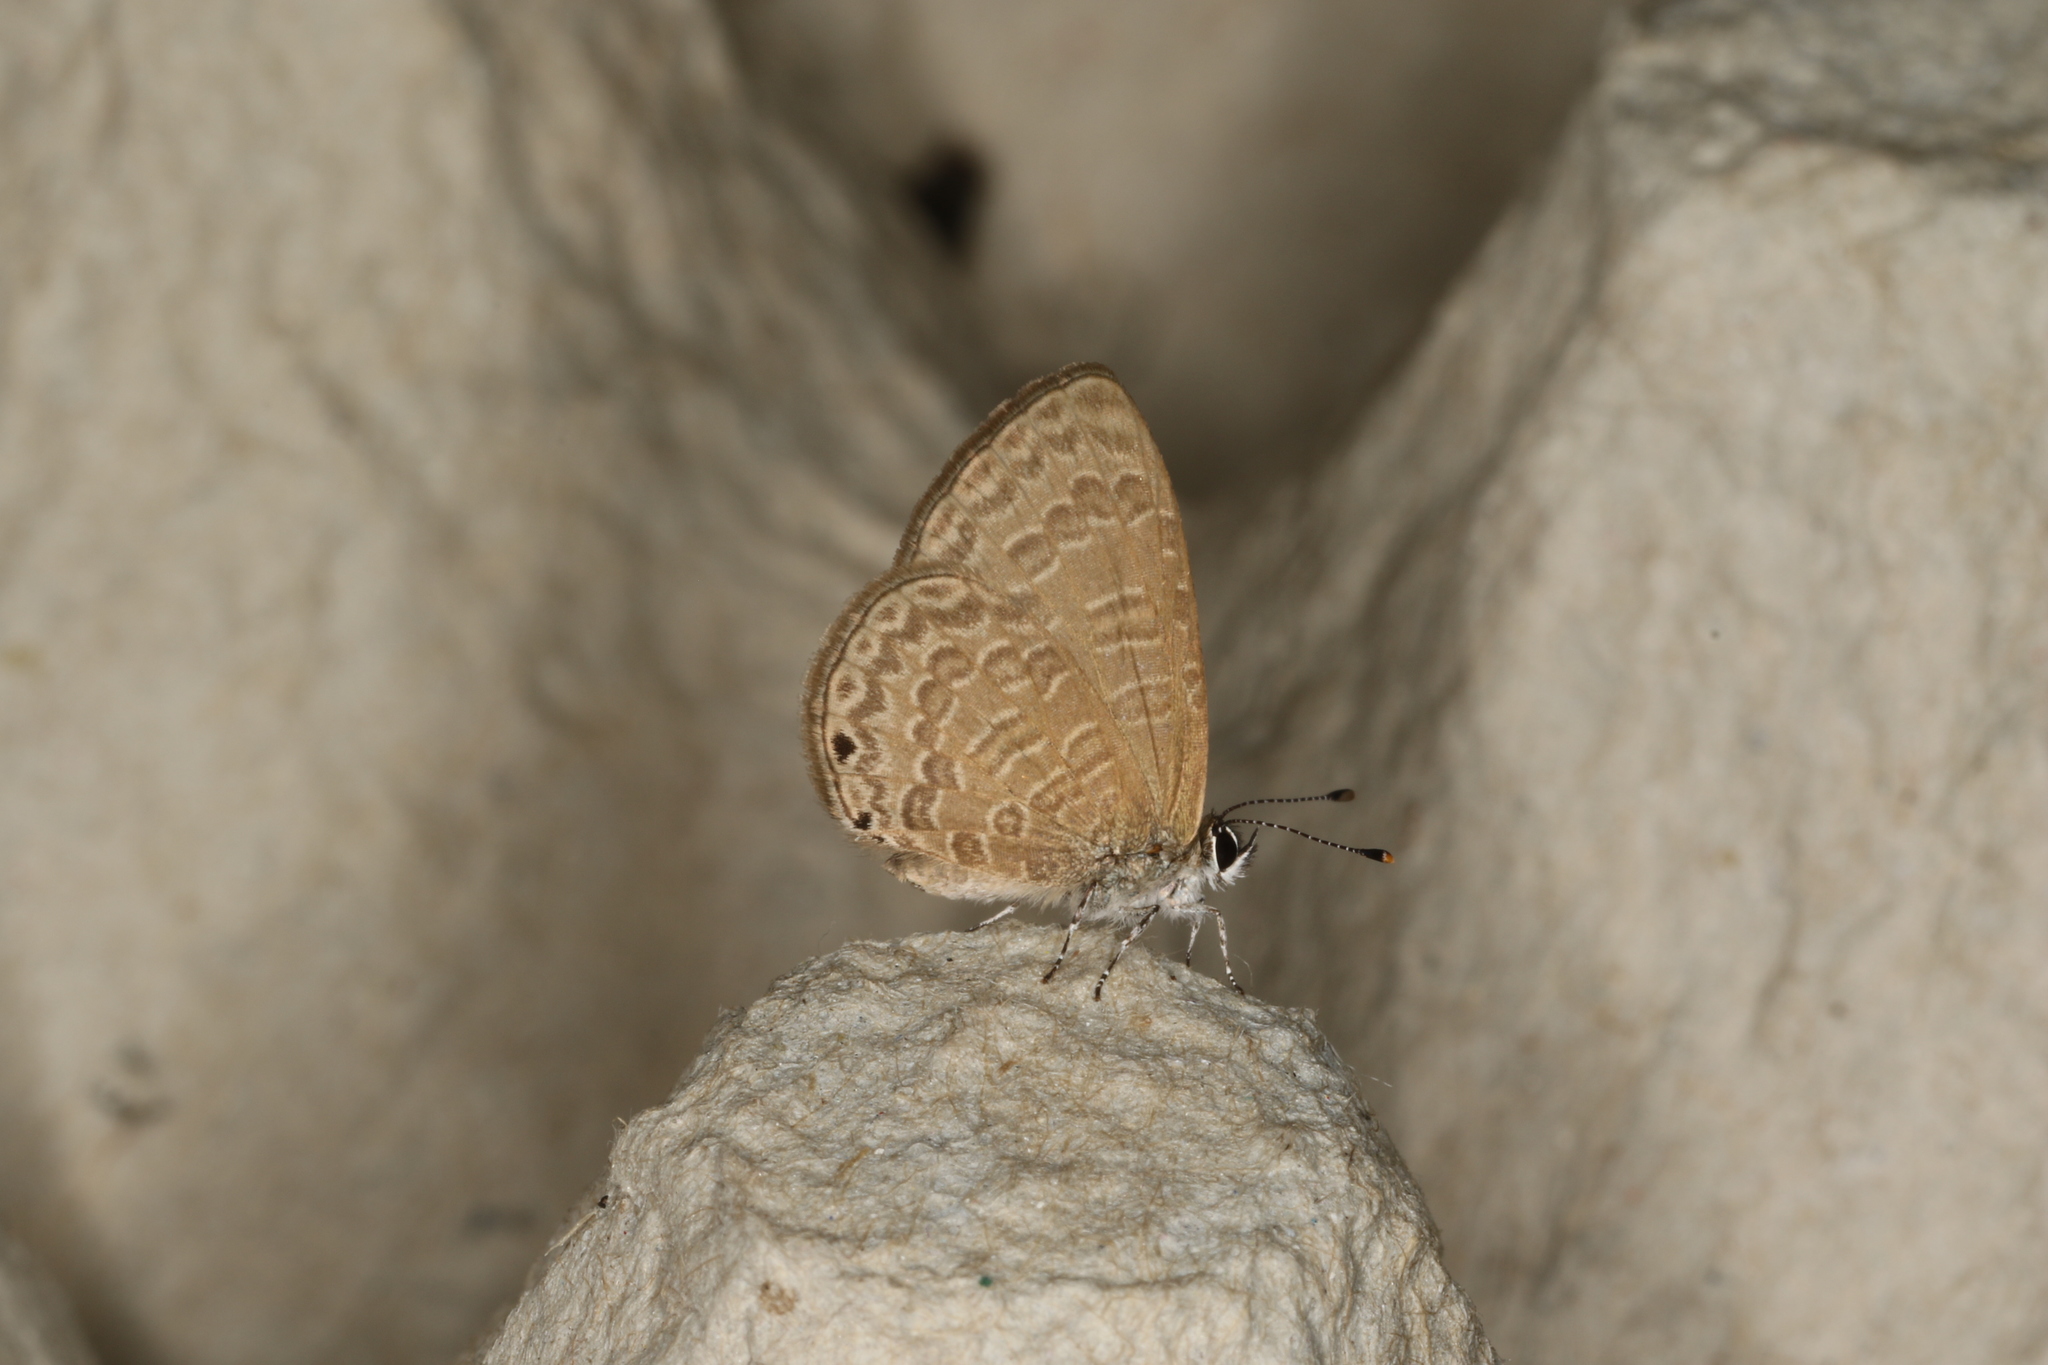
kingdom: Animalia
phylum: Arthropoda
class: Insecta
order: Lepidoptera
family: Lycaenidae
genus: Petrelaea
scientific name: Petrelaea tombugensis
